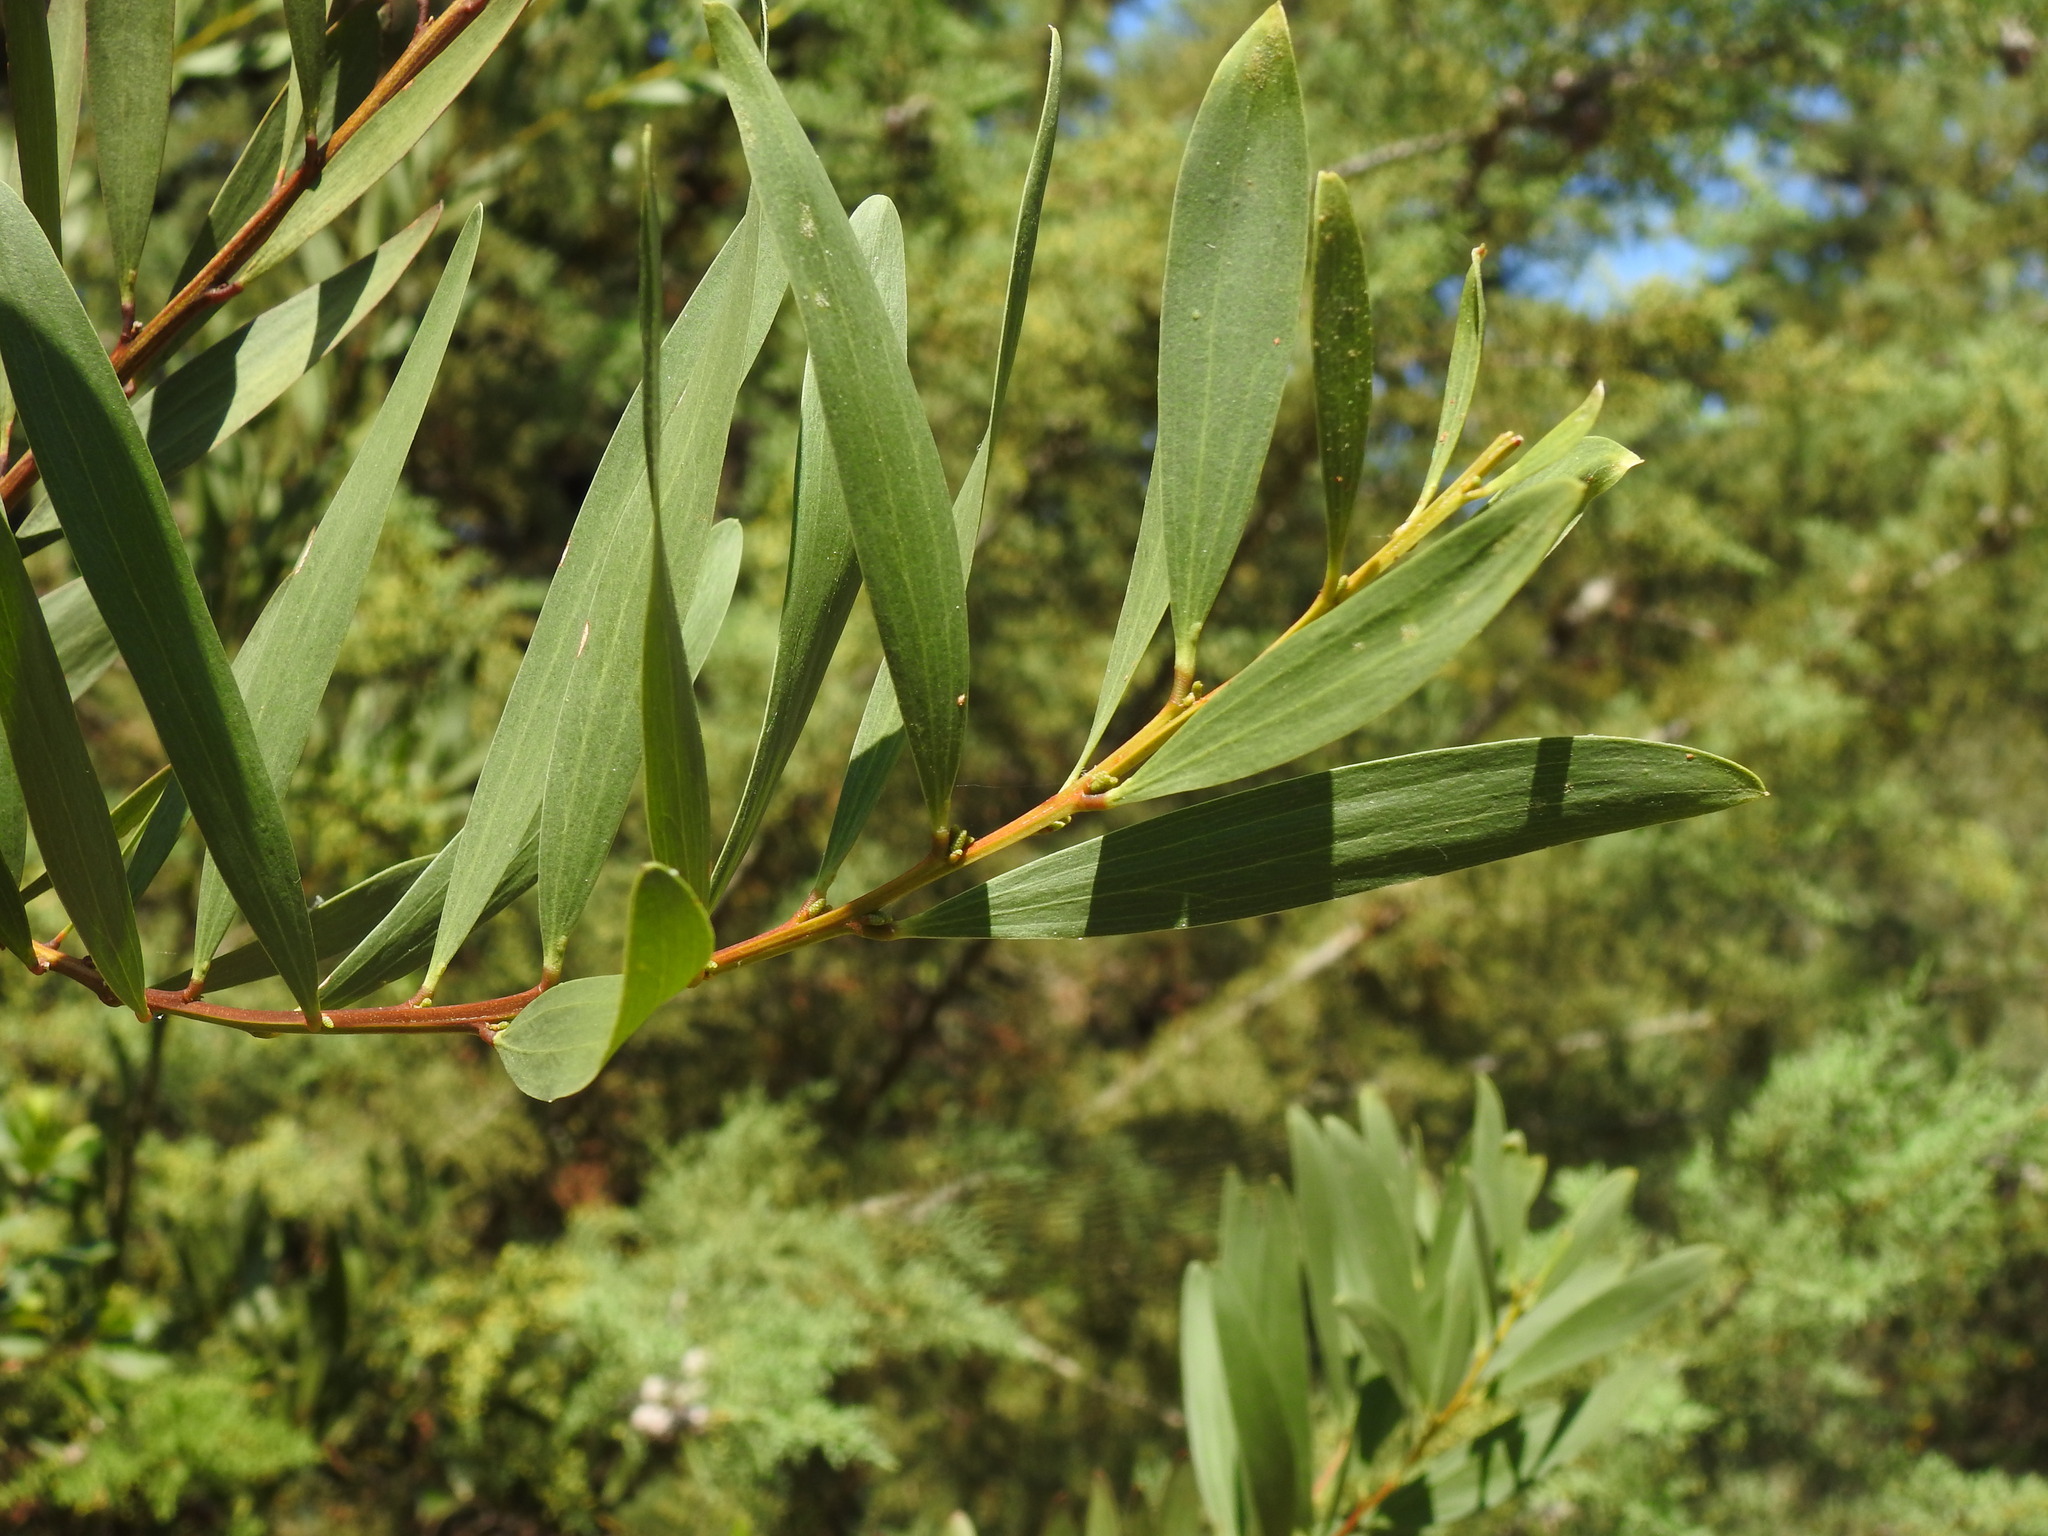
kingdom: Plantae
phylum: Tracheophyta
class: Magnoliopsida
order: Fabales
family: Fabaceae
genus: Acacia
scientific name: Acacia longifolia
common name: Sydney golden wattle
